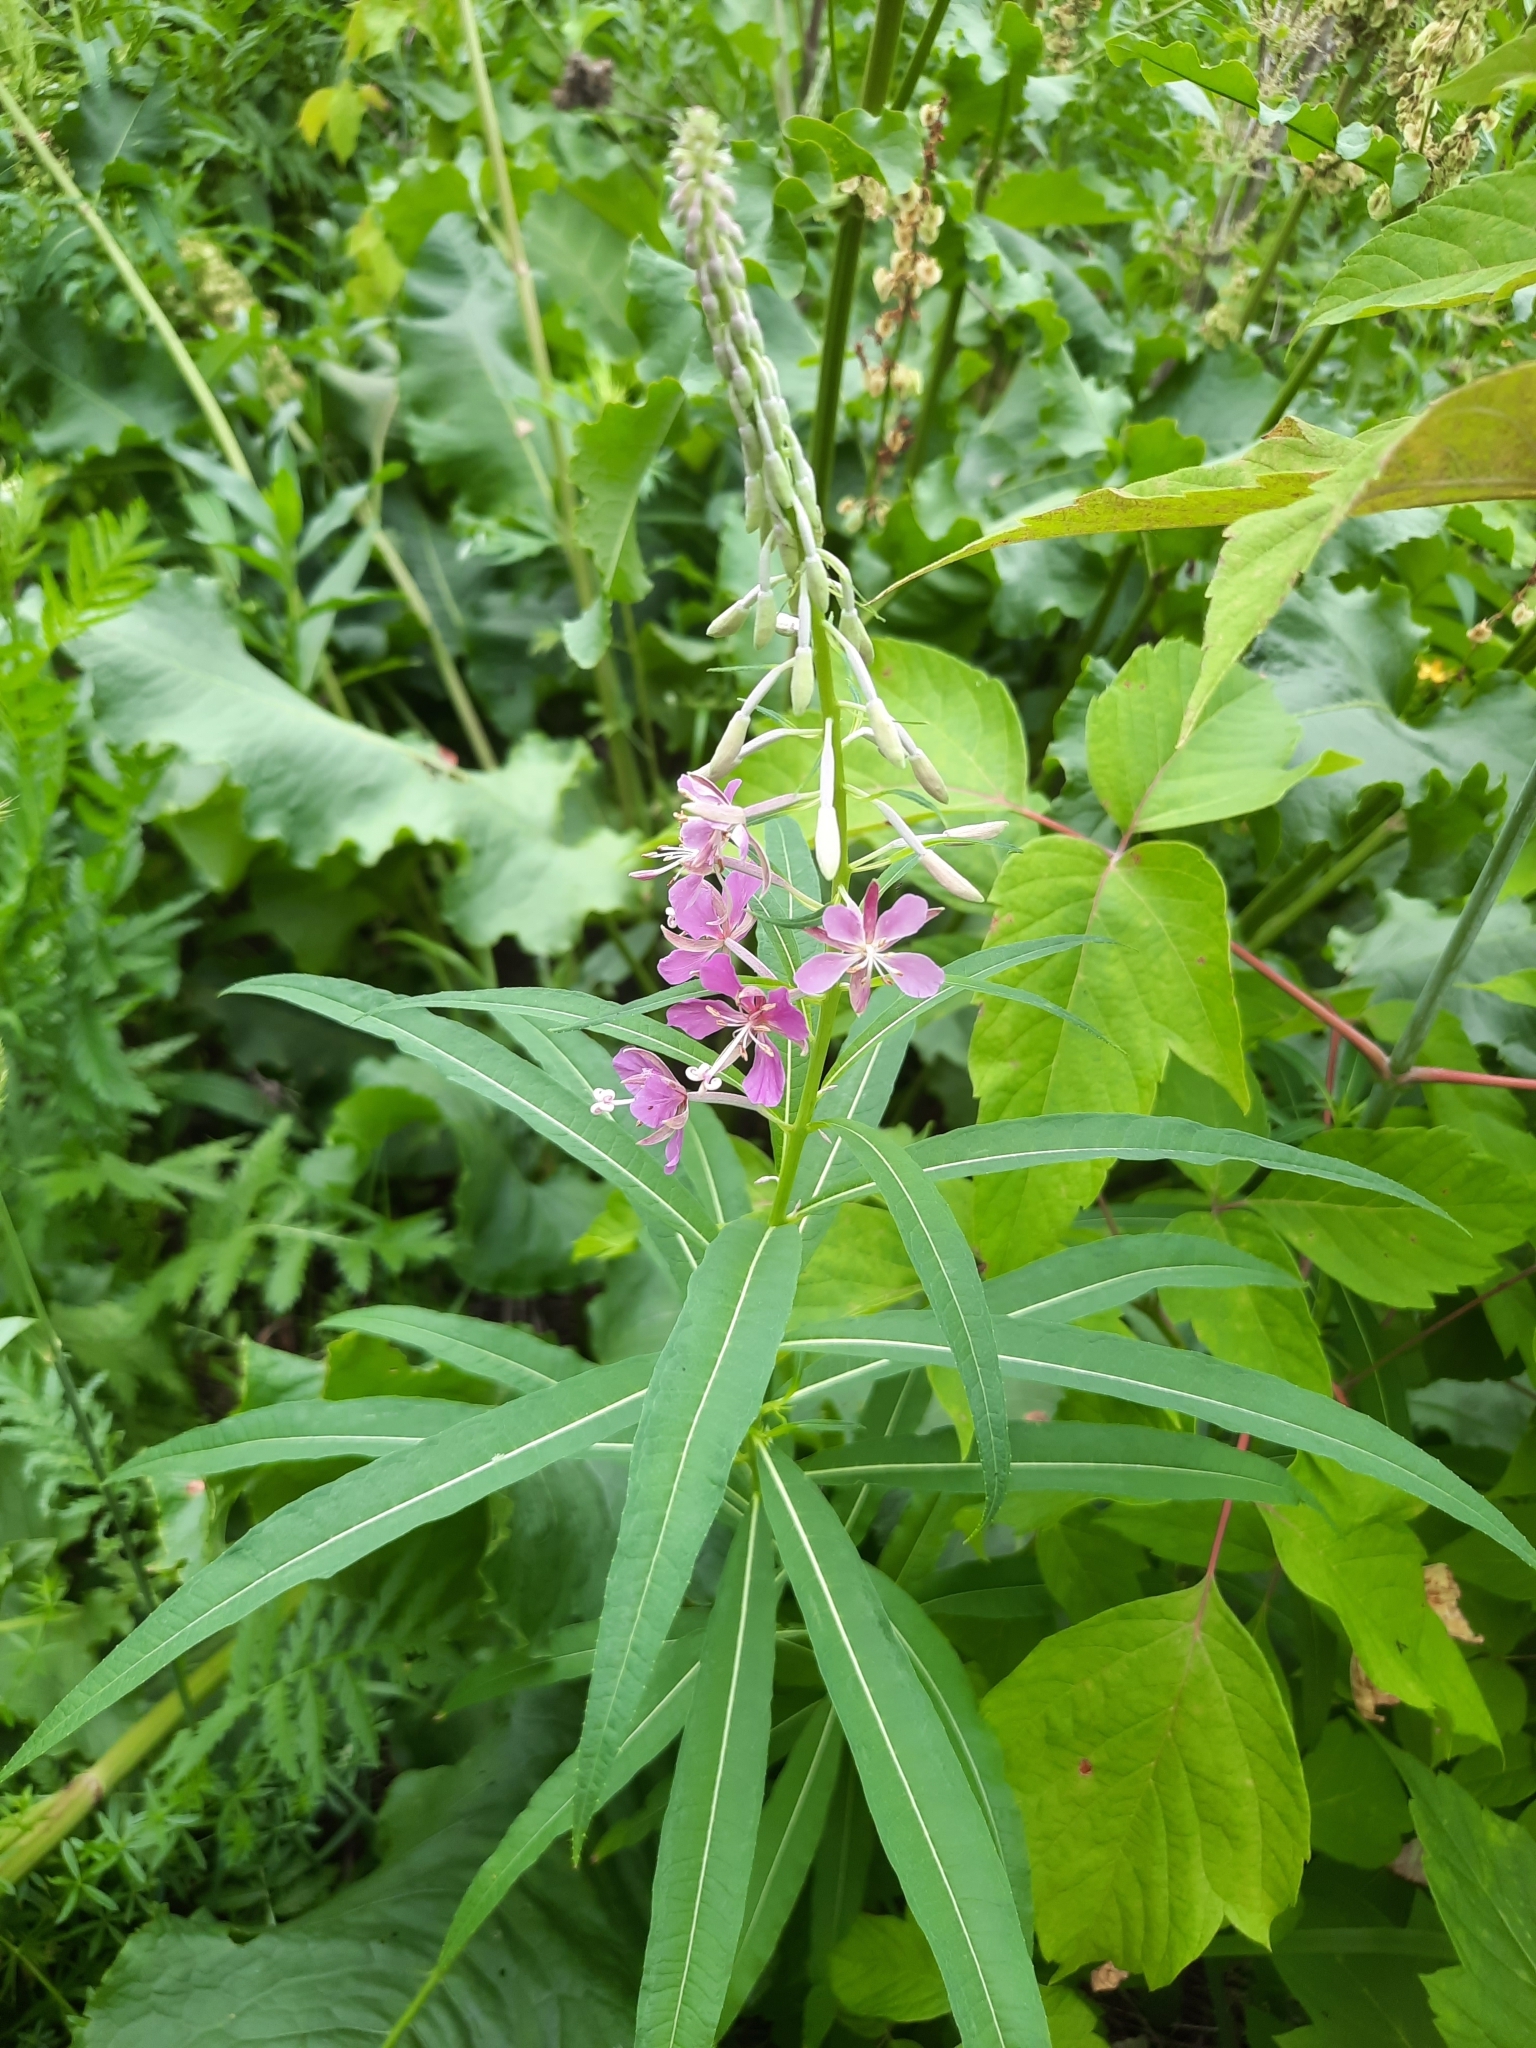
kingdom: Plantae
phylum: Tracheophyta
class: Magnoliopsida
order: Myrtales
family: Onagraceae
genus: Chamaenerion
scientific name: Chamaenerion angustifolium
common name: Fireweed
